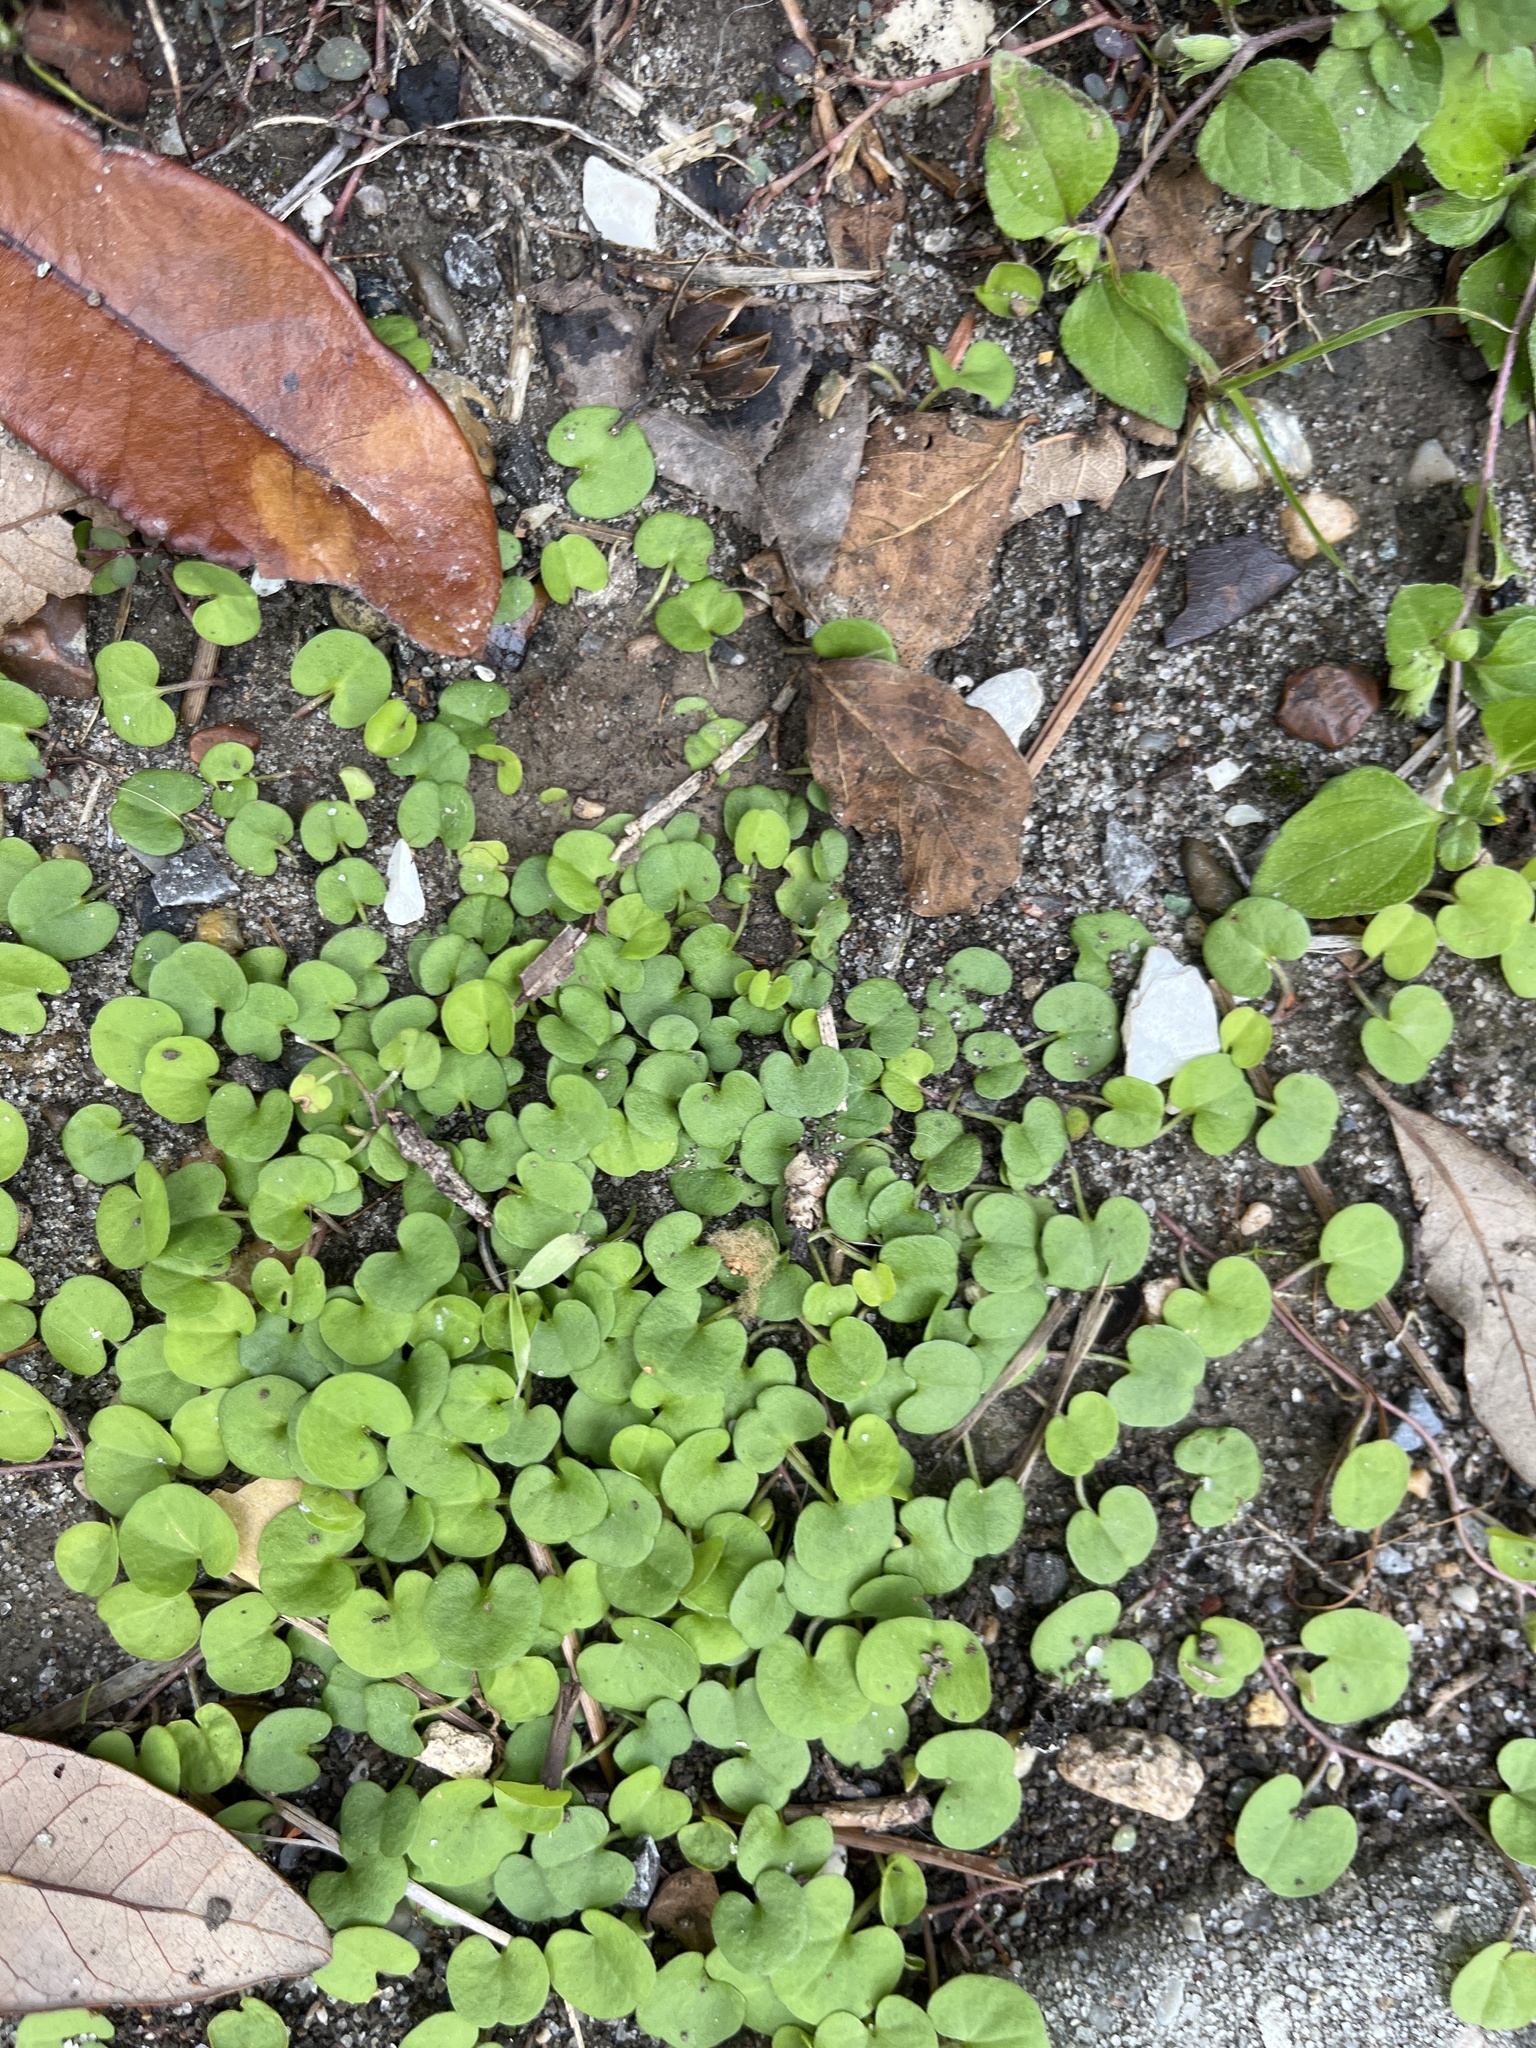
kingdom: Plantae
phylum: Tracheophyta
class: Magnoliopsida
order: Solanales
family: Convolvulaceae
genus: Dichondra
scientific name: Dichondra carolinensis
